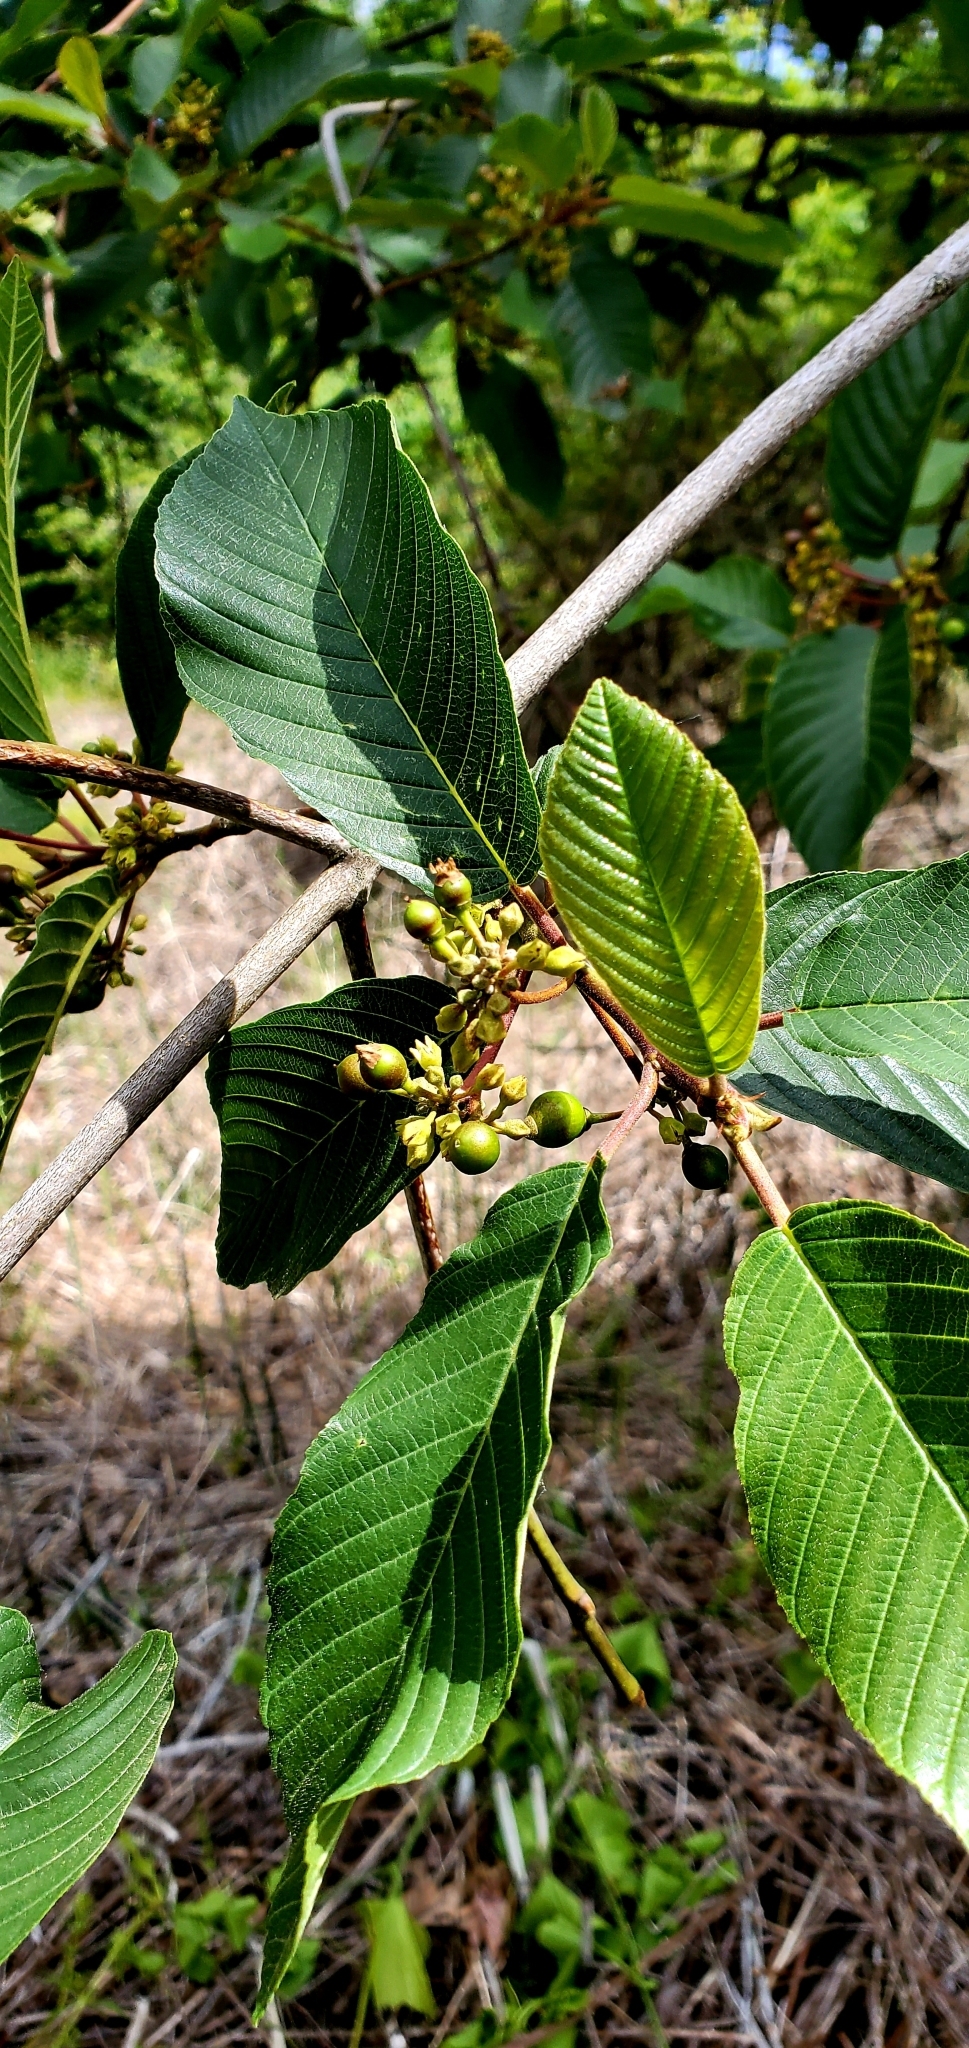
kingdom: Plantae
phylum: Tracheophyta
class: Magnoliopsida
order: Rosales
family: Rhamnaceae
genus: Frangula
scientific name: Frangula purshiana
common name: Cascara buckthorn
